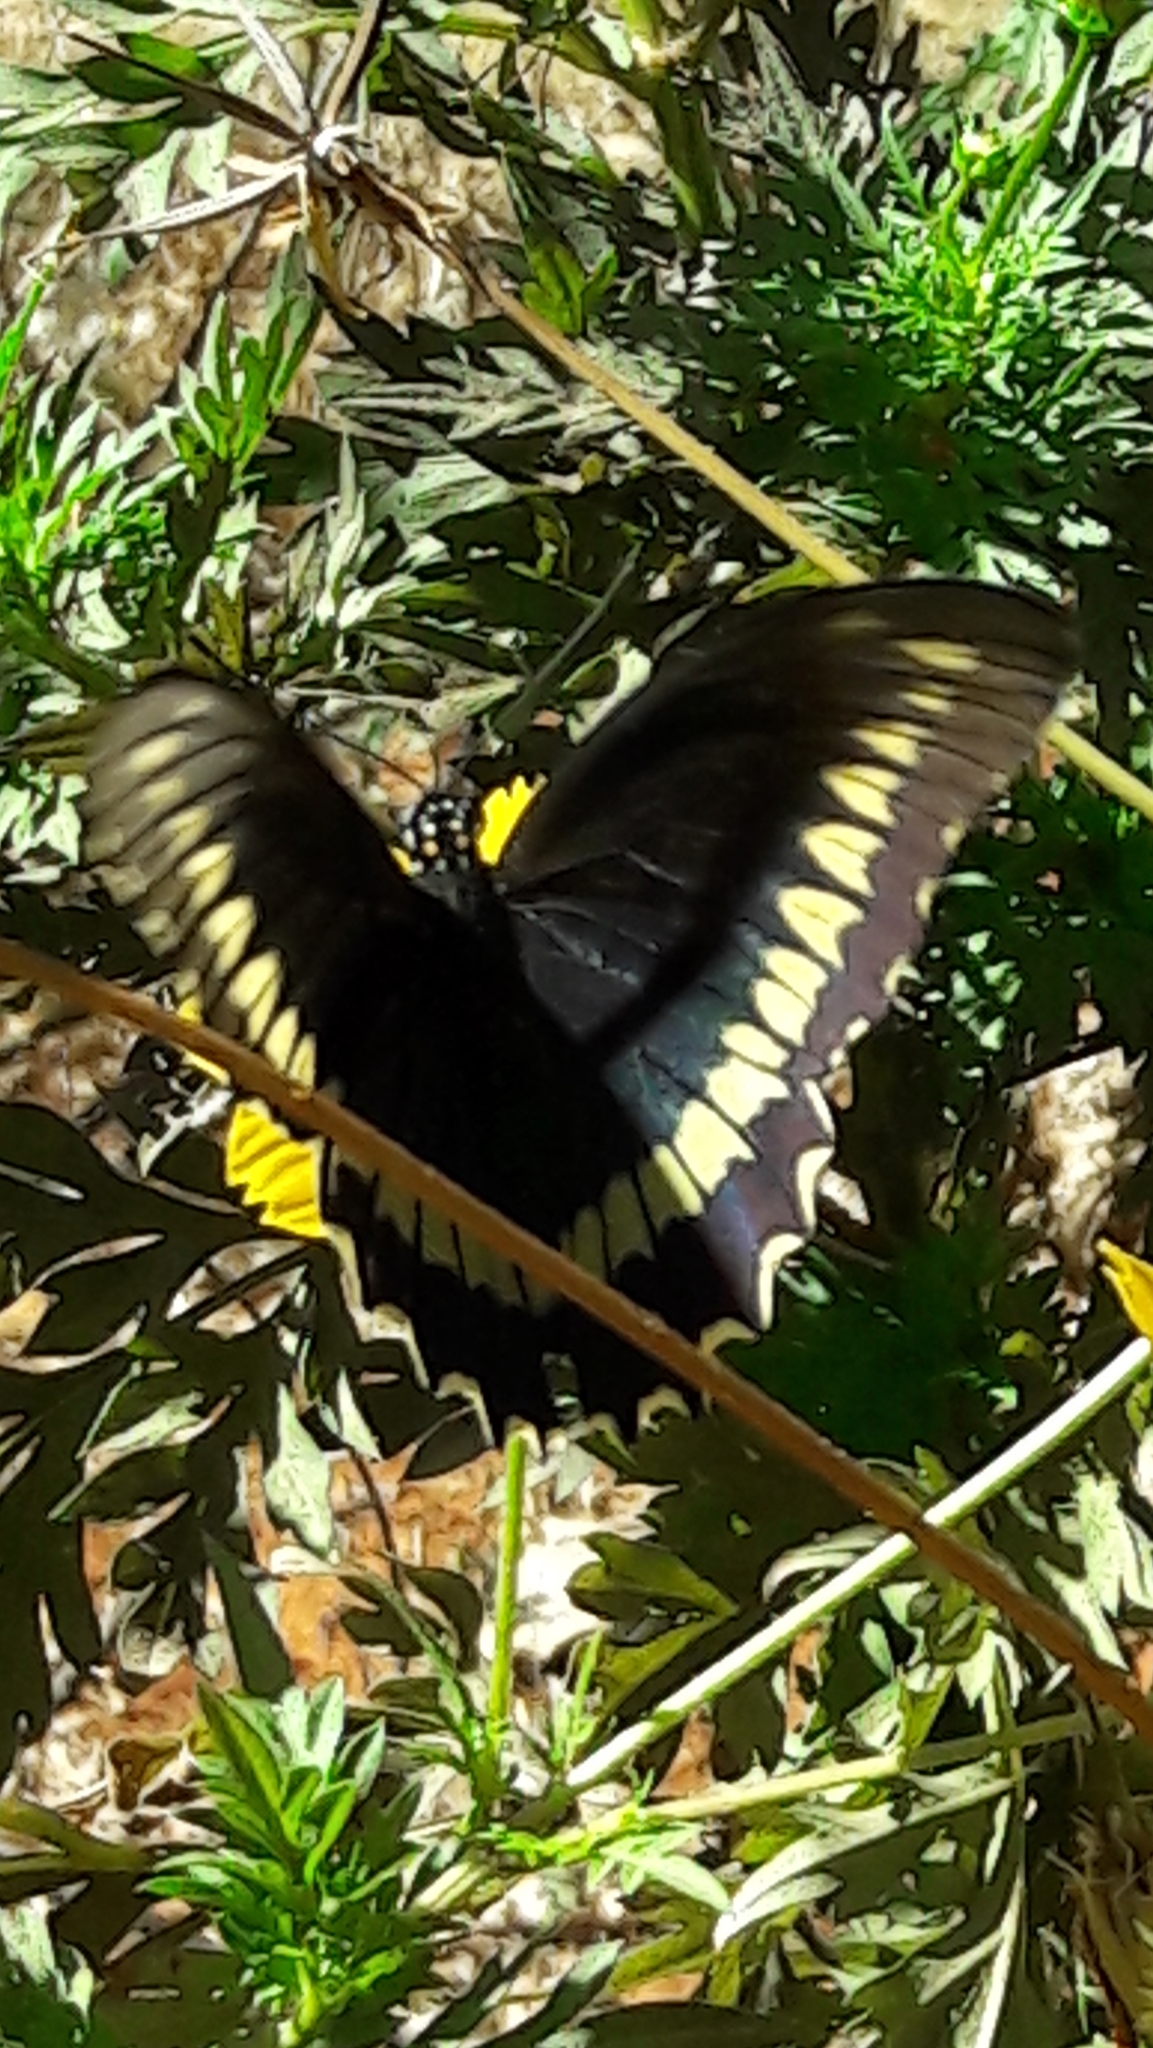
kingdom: Animalia
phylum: Arthropoda
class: Insecta
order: Lepidoptera
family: Papilionidae
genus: Battus
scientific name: Battus polydamas
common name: Polydamas swallowtail
